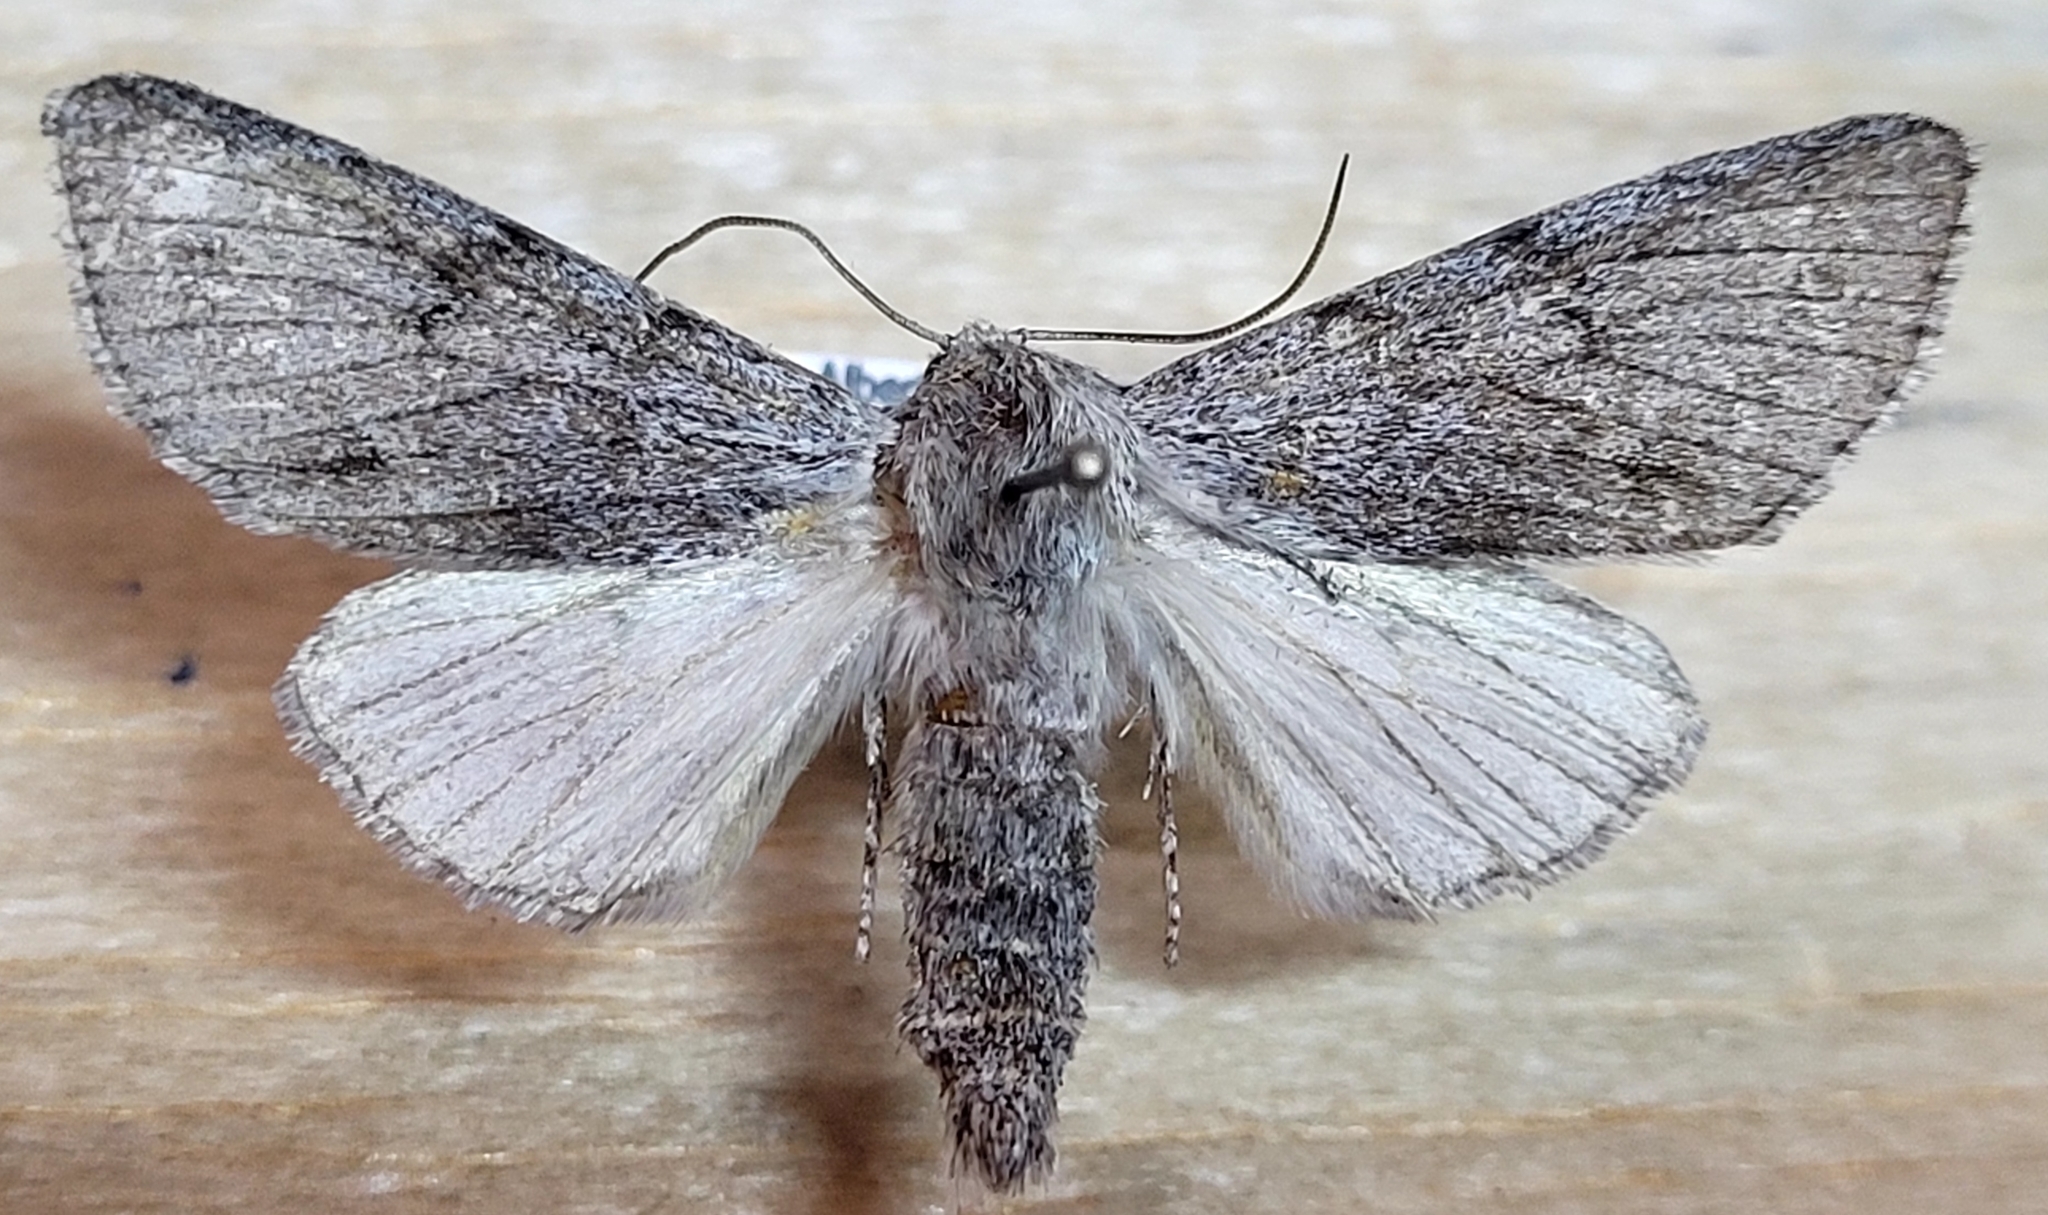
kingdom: Animalia
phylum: Arthropoda
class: Insecta
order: Lepidoptera
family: Noctuidae
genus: Acronicta
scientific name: Acronicta cyanescens
